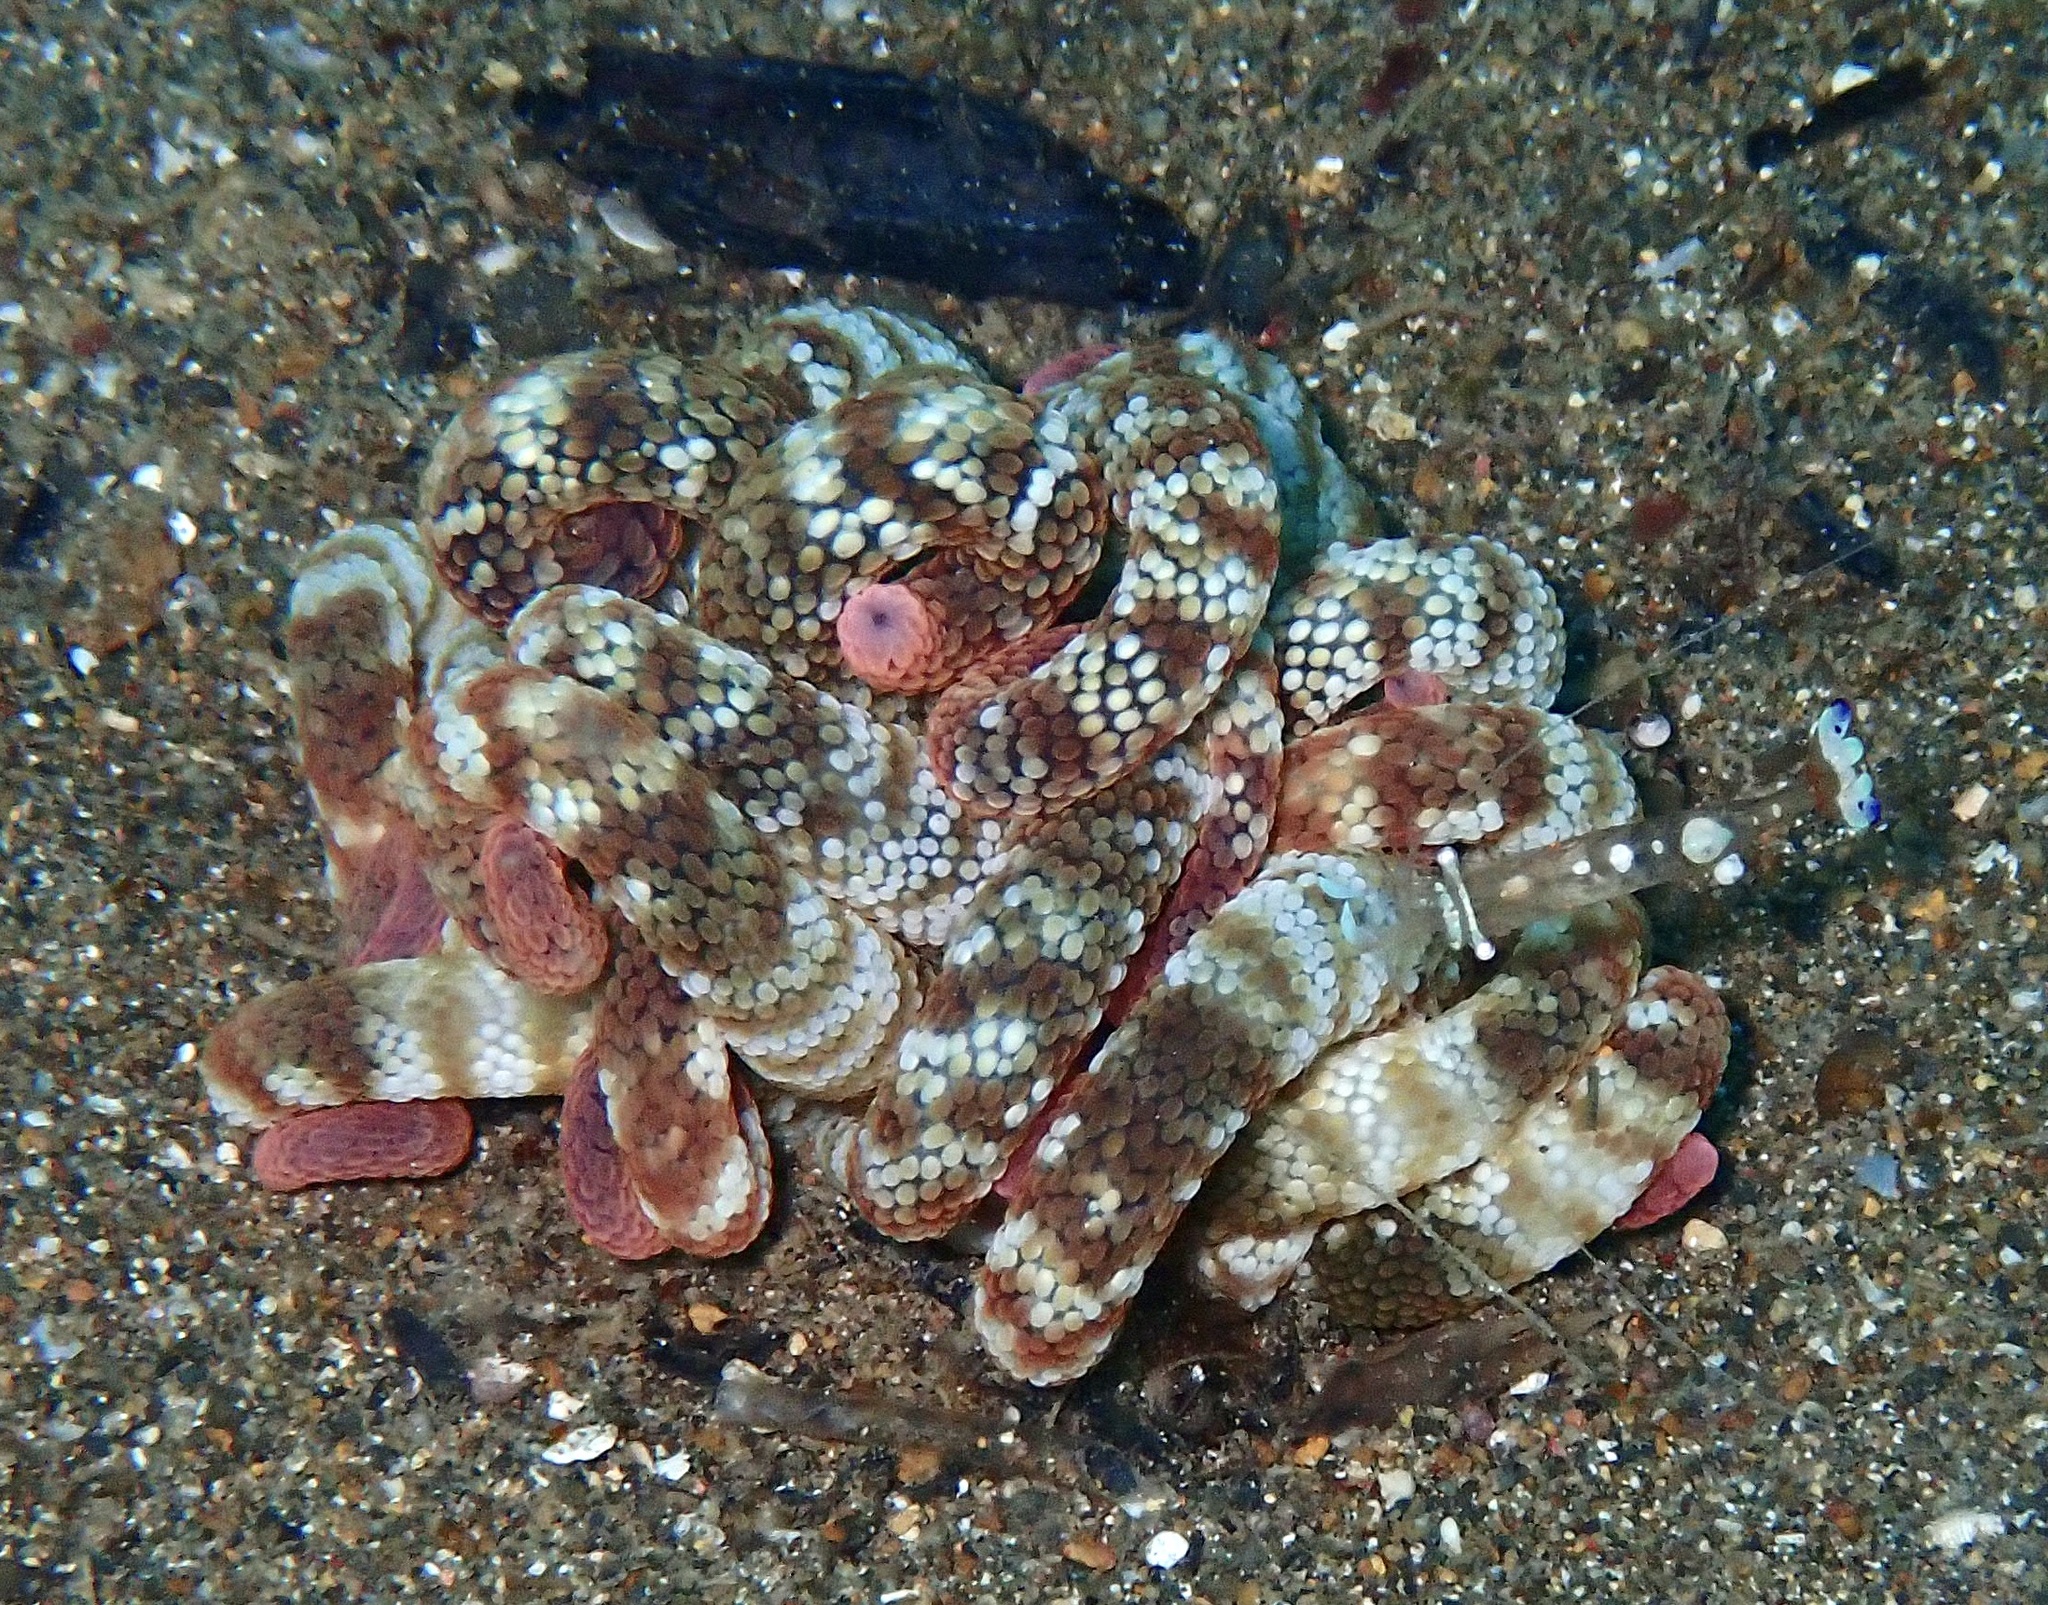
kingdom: Animalia
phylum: Cnidaria
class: Anthozoa
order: Actiniaria
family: Actiniidae
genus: Dofleinia
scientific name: Dofleinia armata
